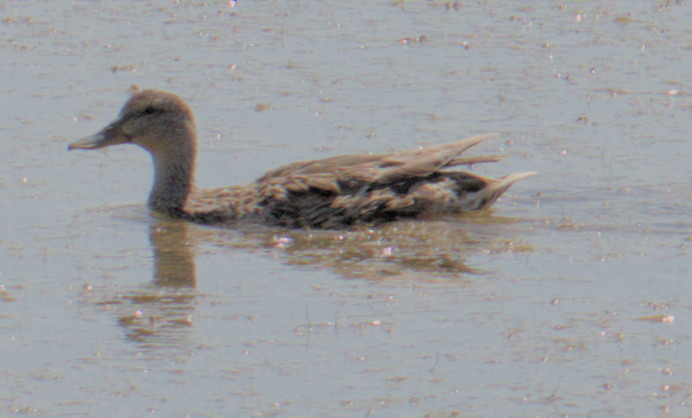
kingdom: Animalia
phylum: Chordata
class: Aves
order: Anseriformes
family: Anatidae
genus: Anas
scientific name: Anas platyrhynchos
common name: Mallard
